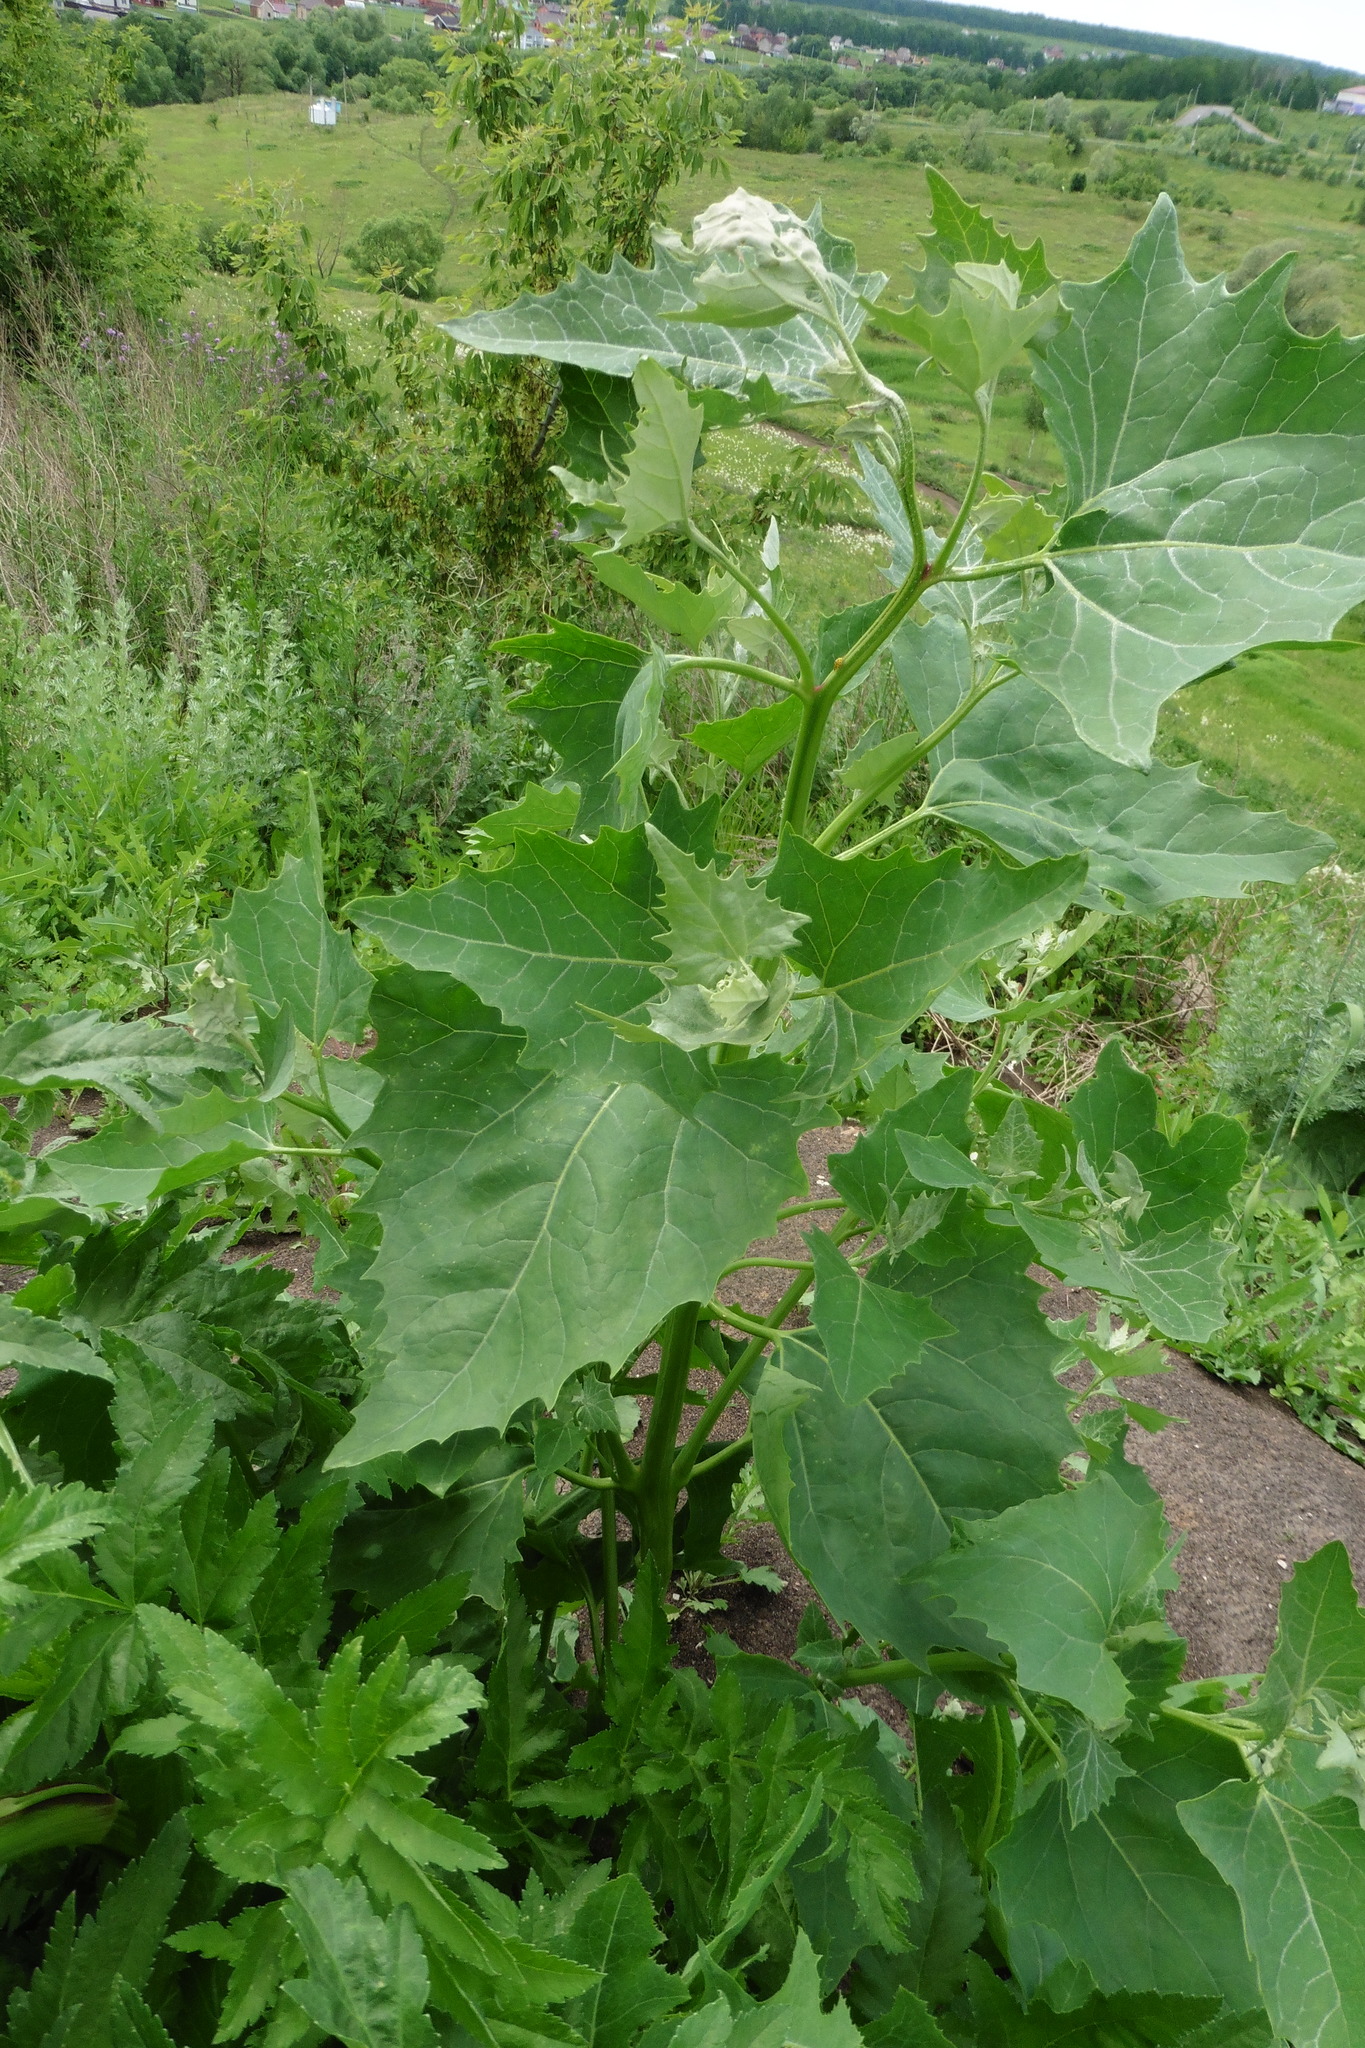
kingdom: Plantae
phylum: Tracheophyta
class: Magnoliopsida
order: Caryophyllales
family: Amaranthaceae
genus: Atriplex
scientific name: Atriplex sagittata
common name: Purple orache
